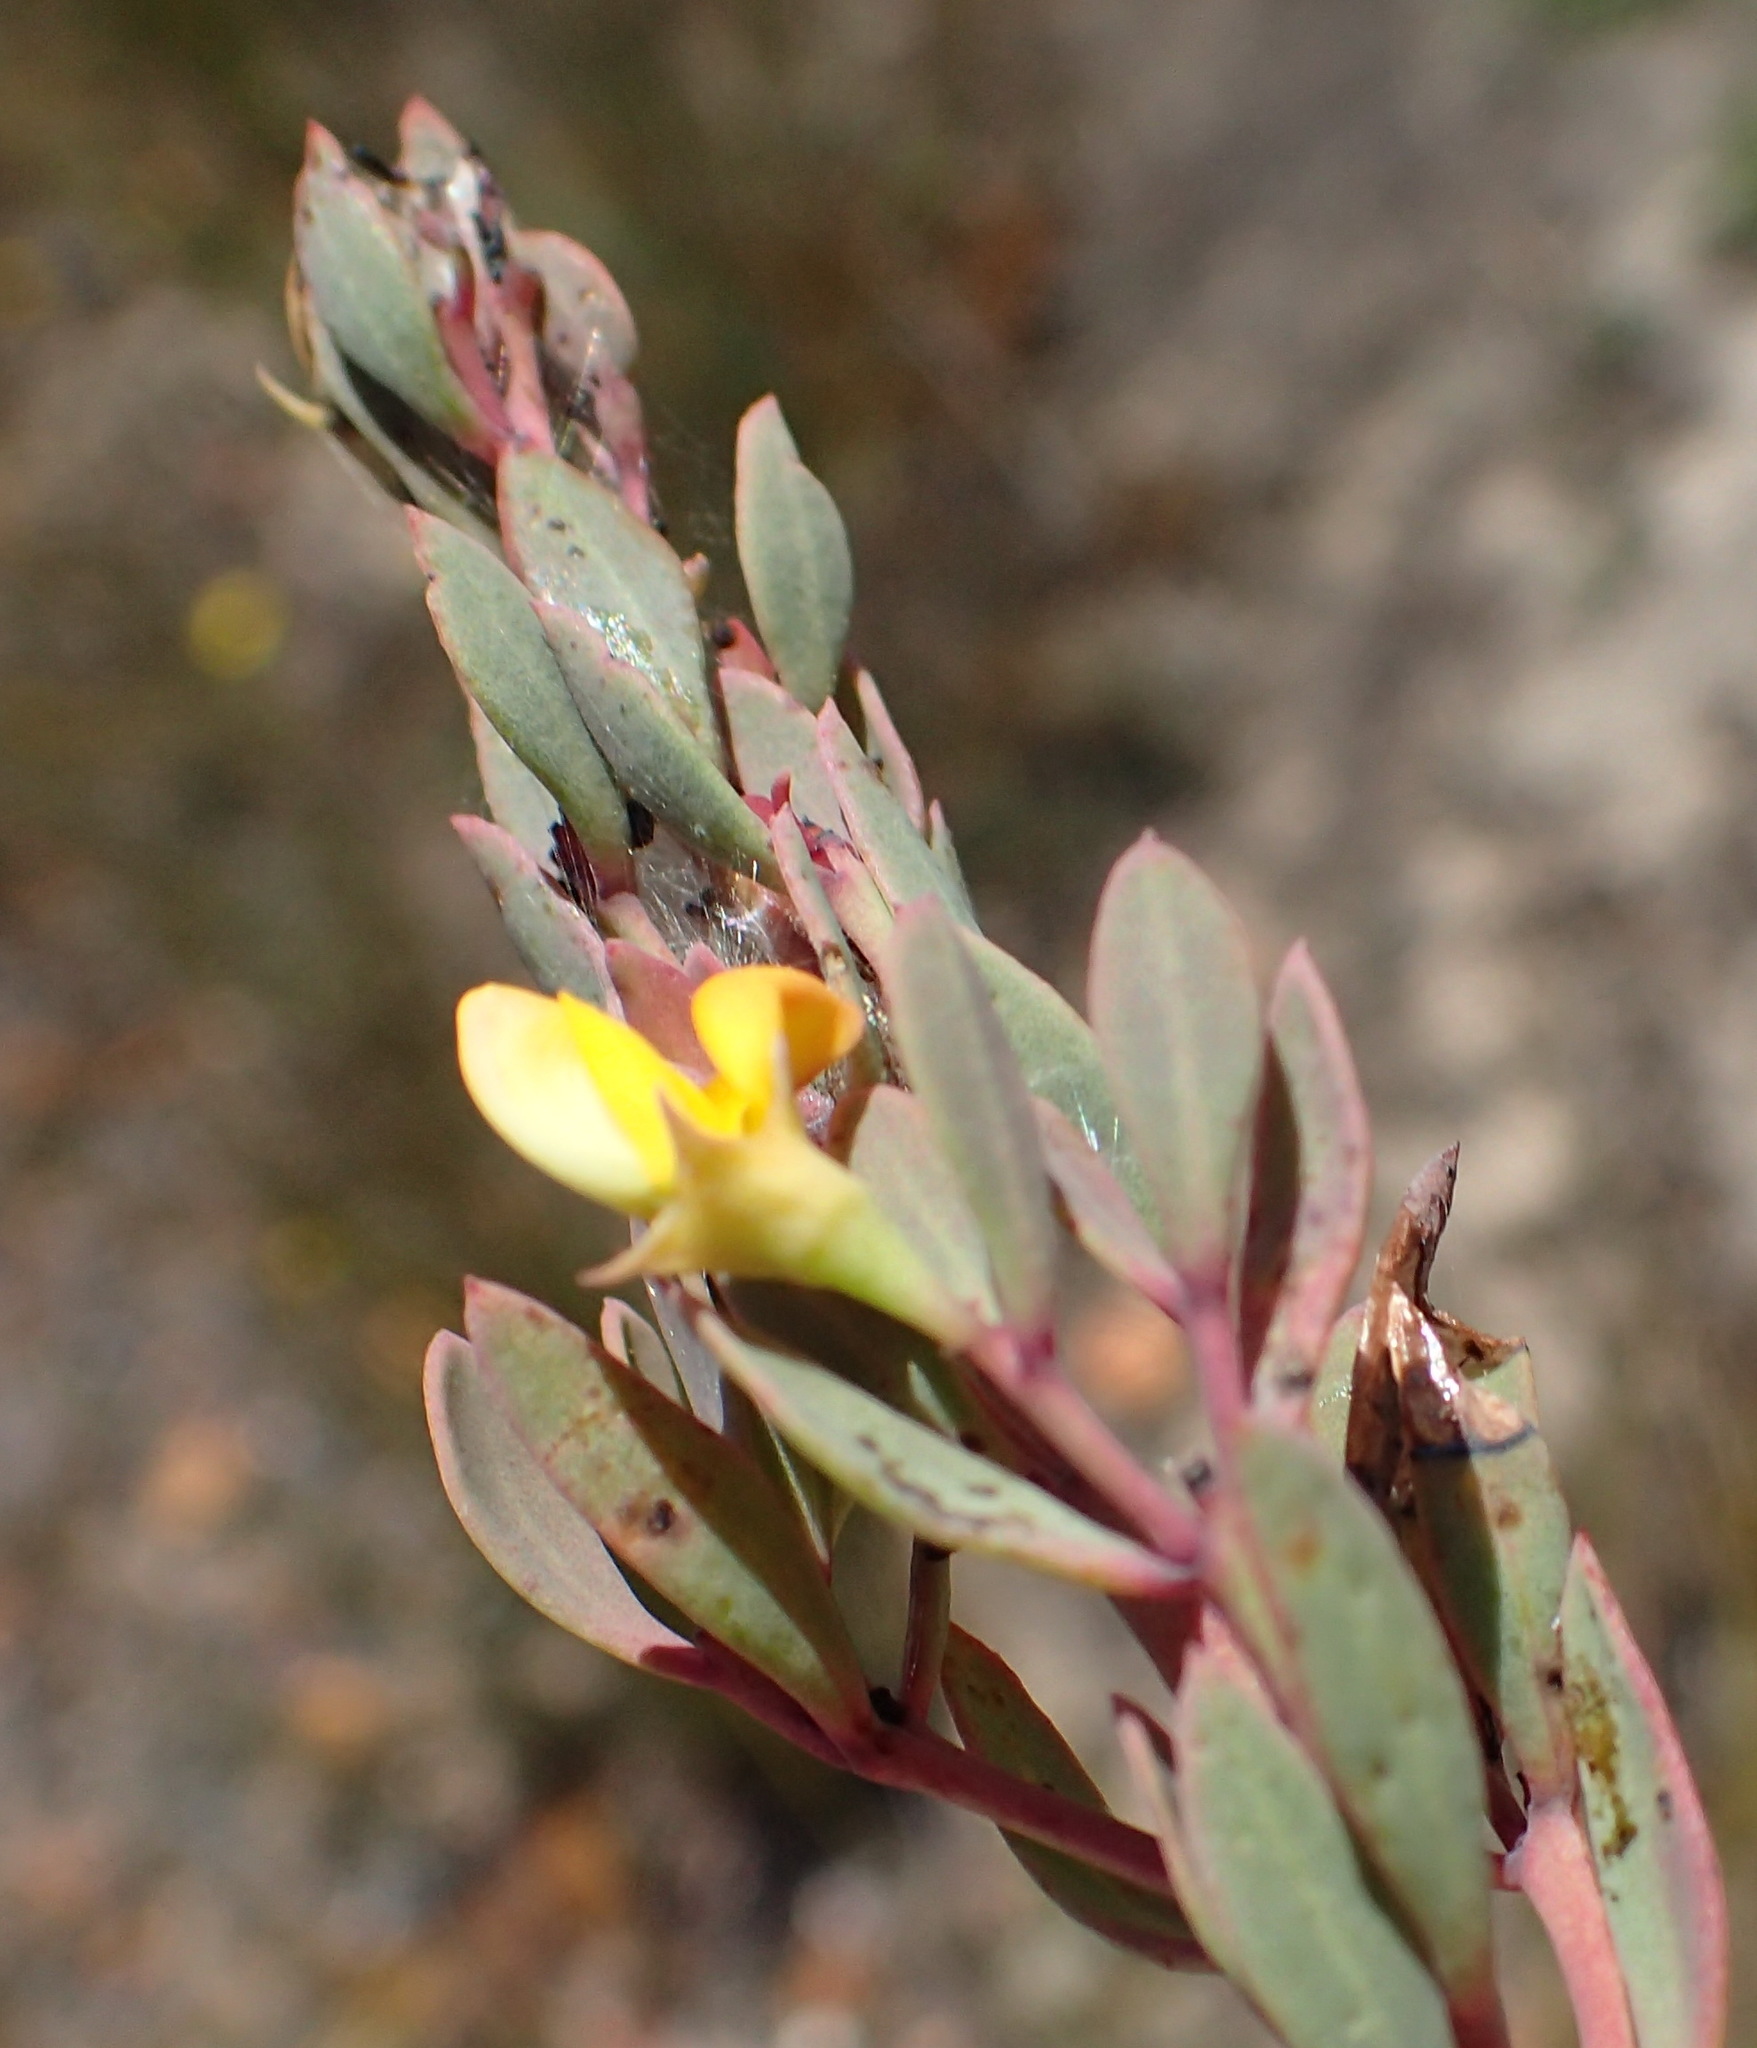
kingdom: Plantae
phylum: Tracheophyta
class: Magnoliopsida
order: Fabales
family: Fabaceae
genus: Rafnia
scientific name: Rafnia capensis
